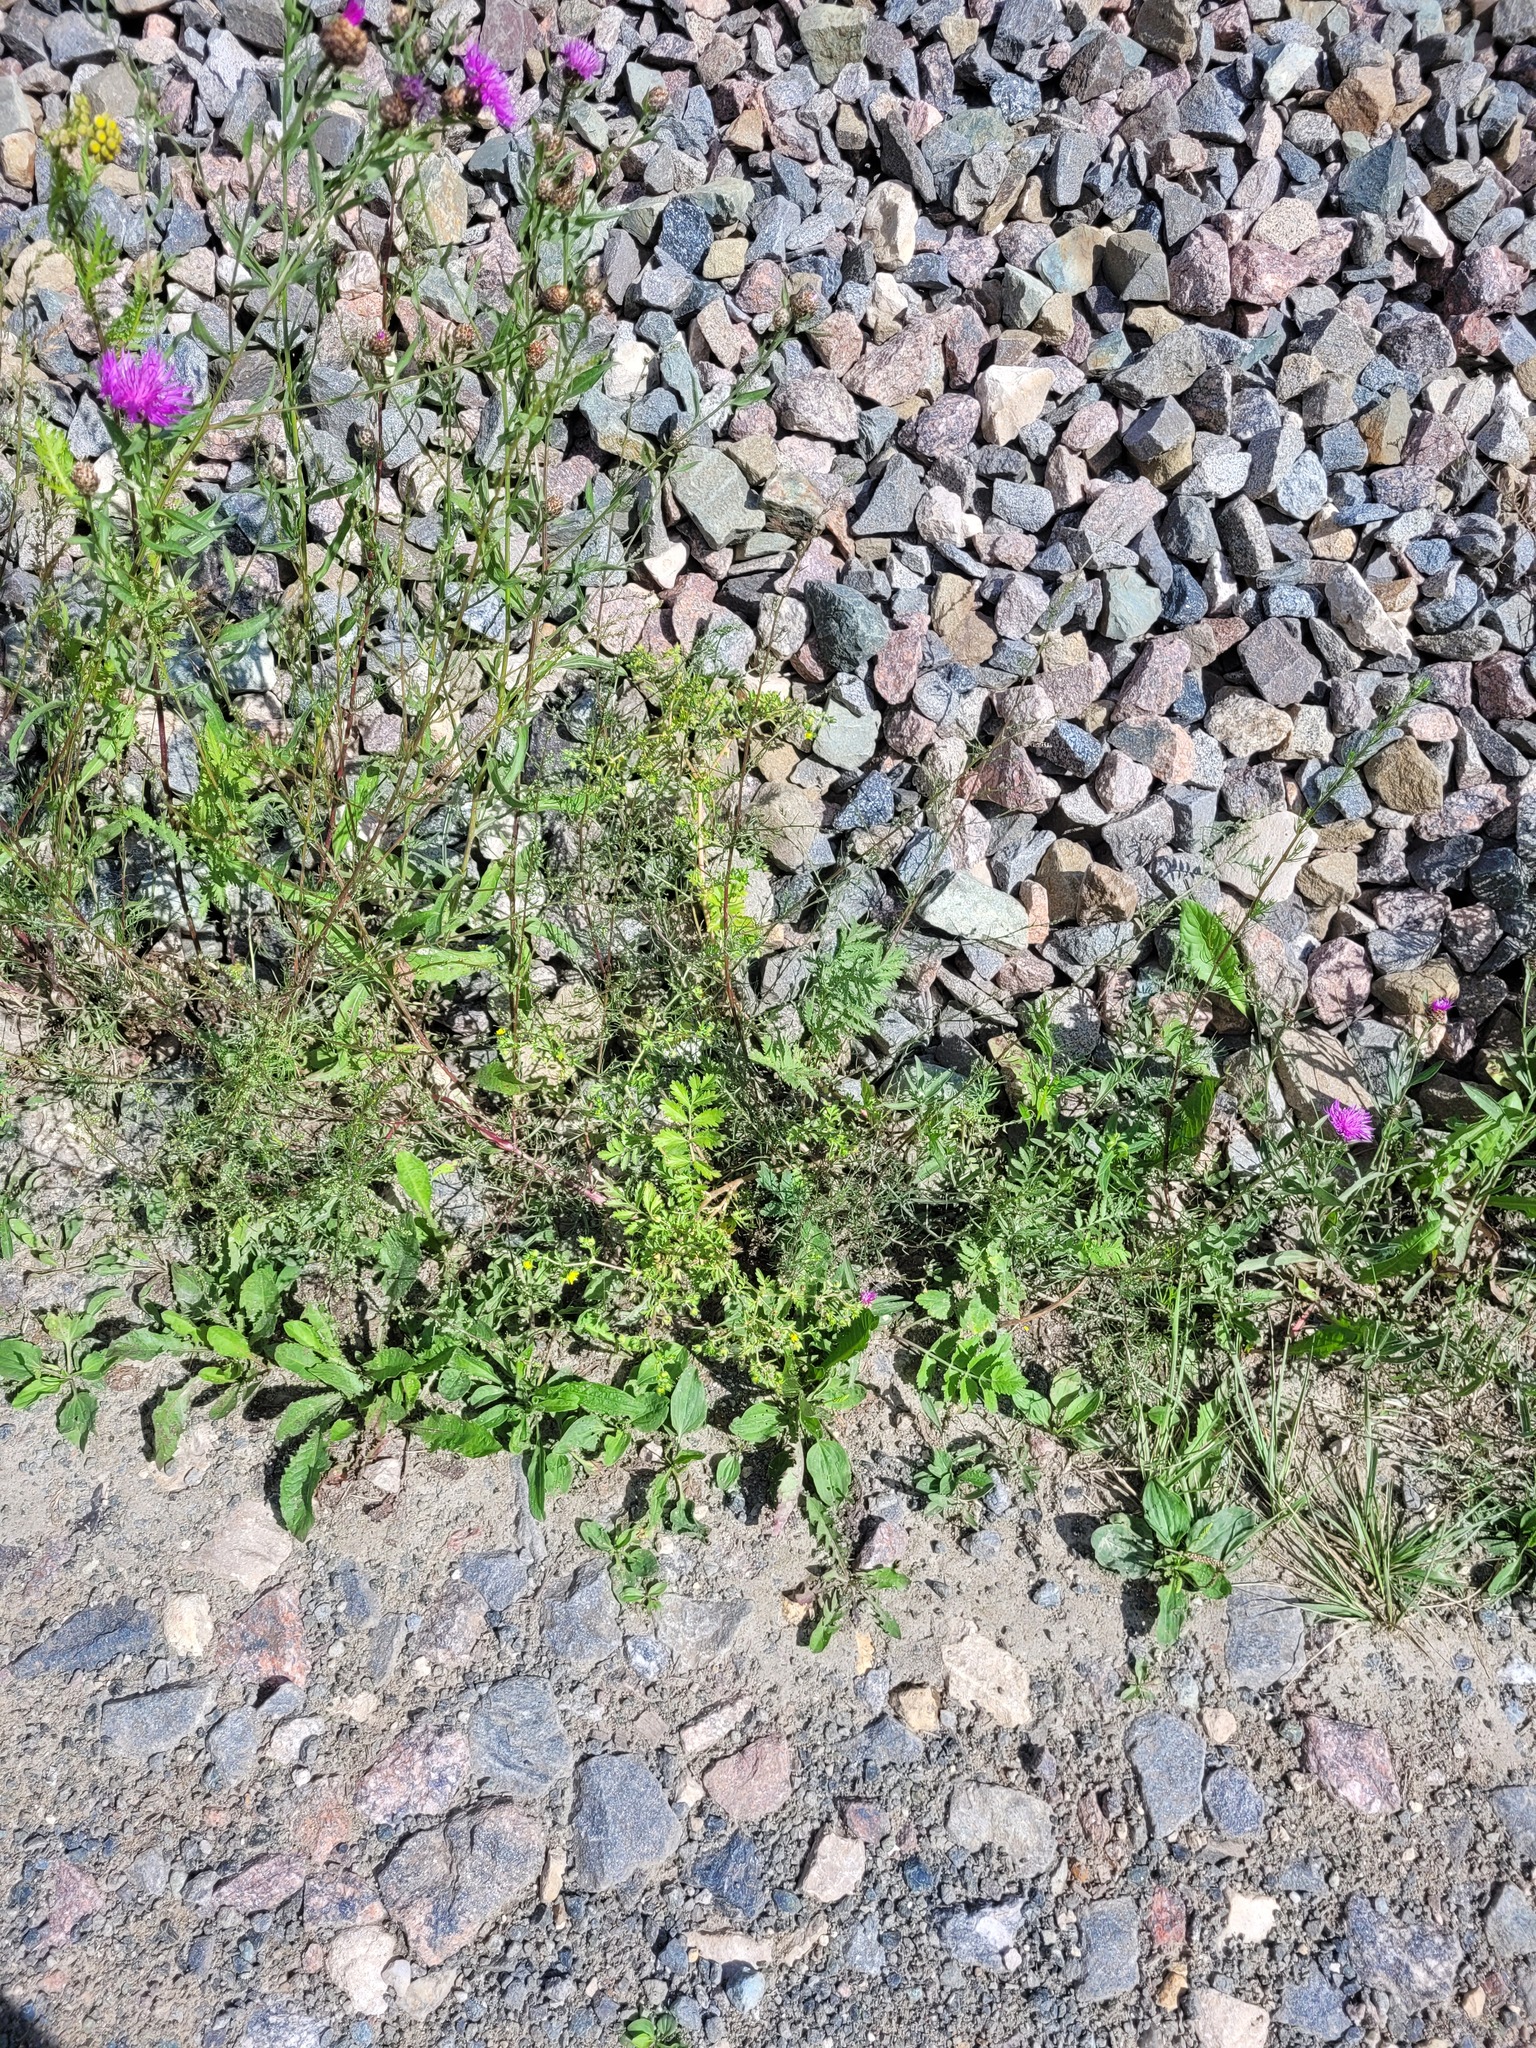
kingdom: Plantae
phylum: Tracheophyta
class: Magnoliopsida
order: Rosales
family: Rosaceae
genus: Potentilla
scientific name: Potentilla supina
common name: Prostrate cinquefoil
